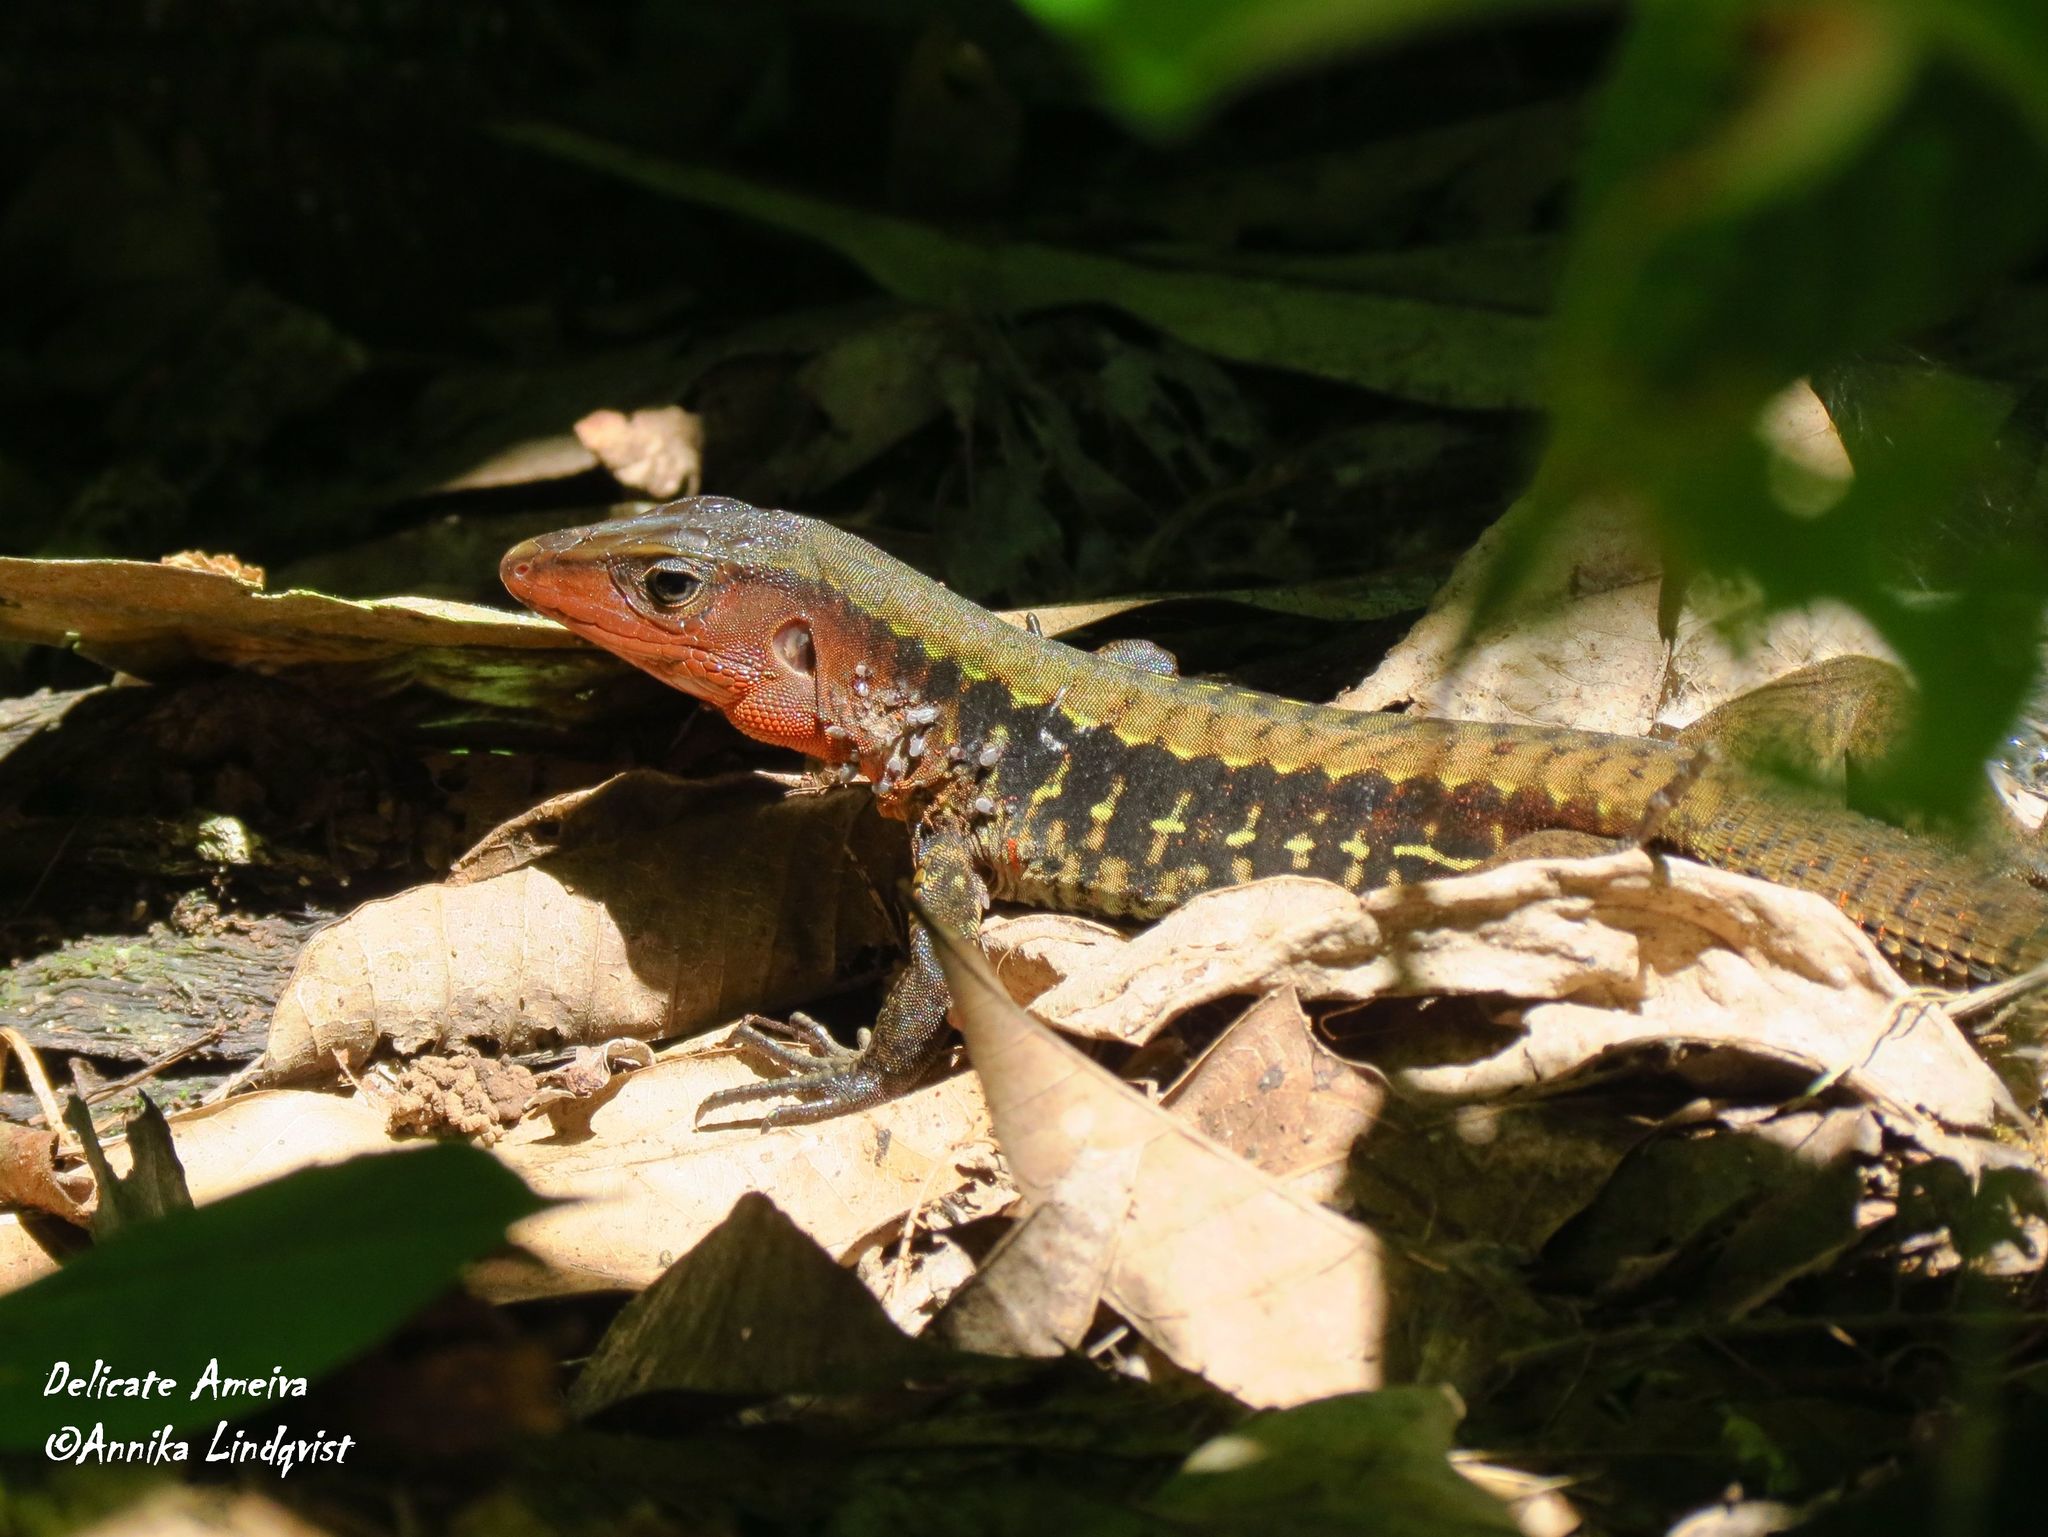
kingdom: Animalia
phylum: Chordata
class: Squamata
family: Teiidae
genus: Holcosus
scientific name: Holcosus leptophrys
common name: Delicate ameiva
